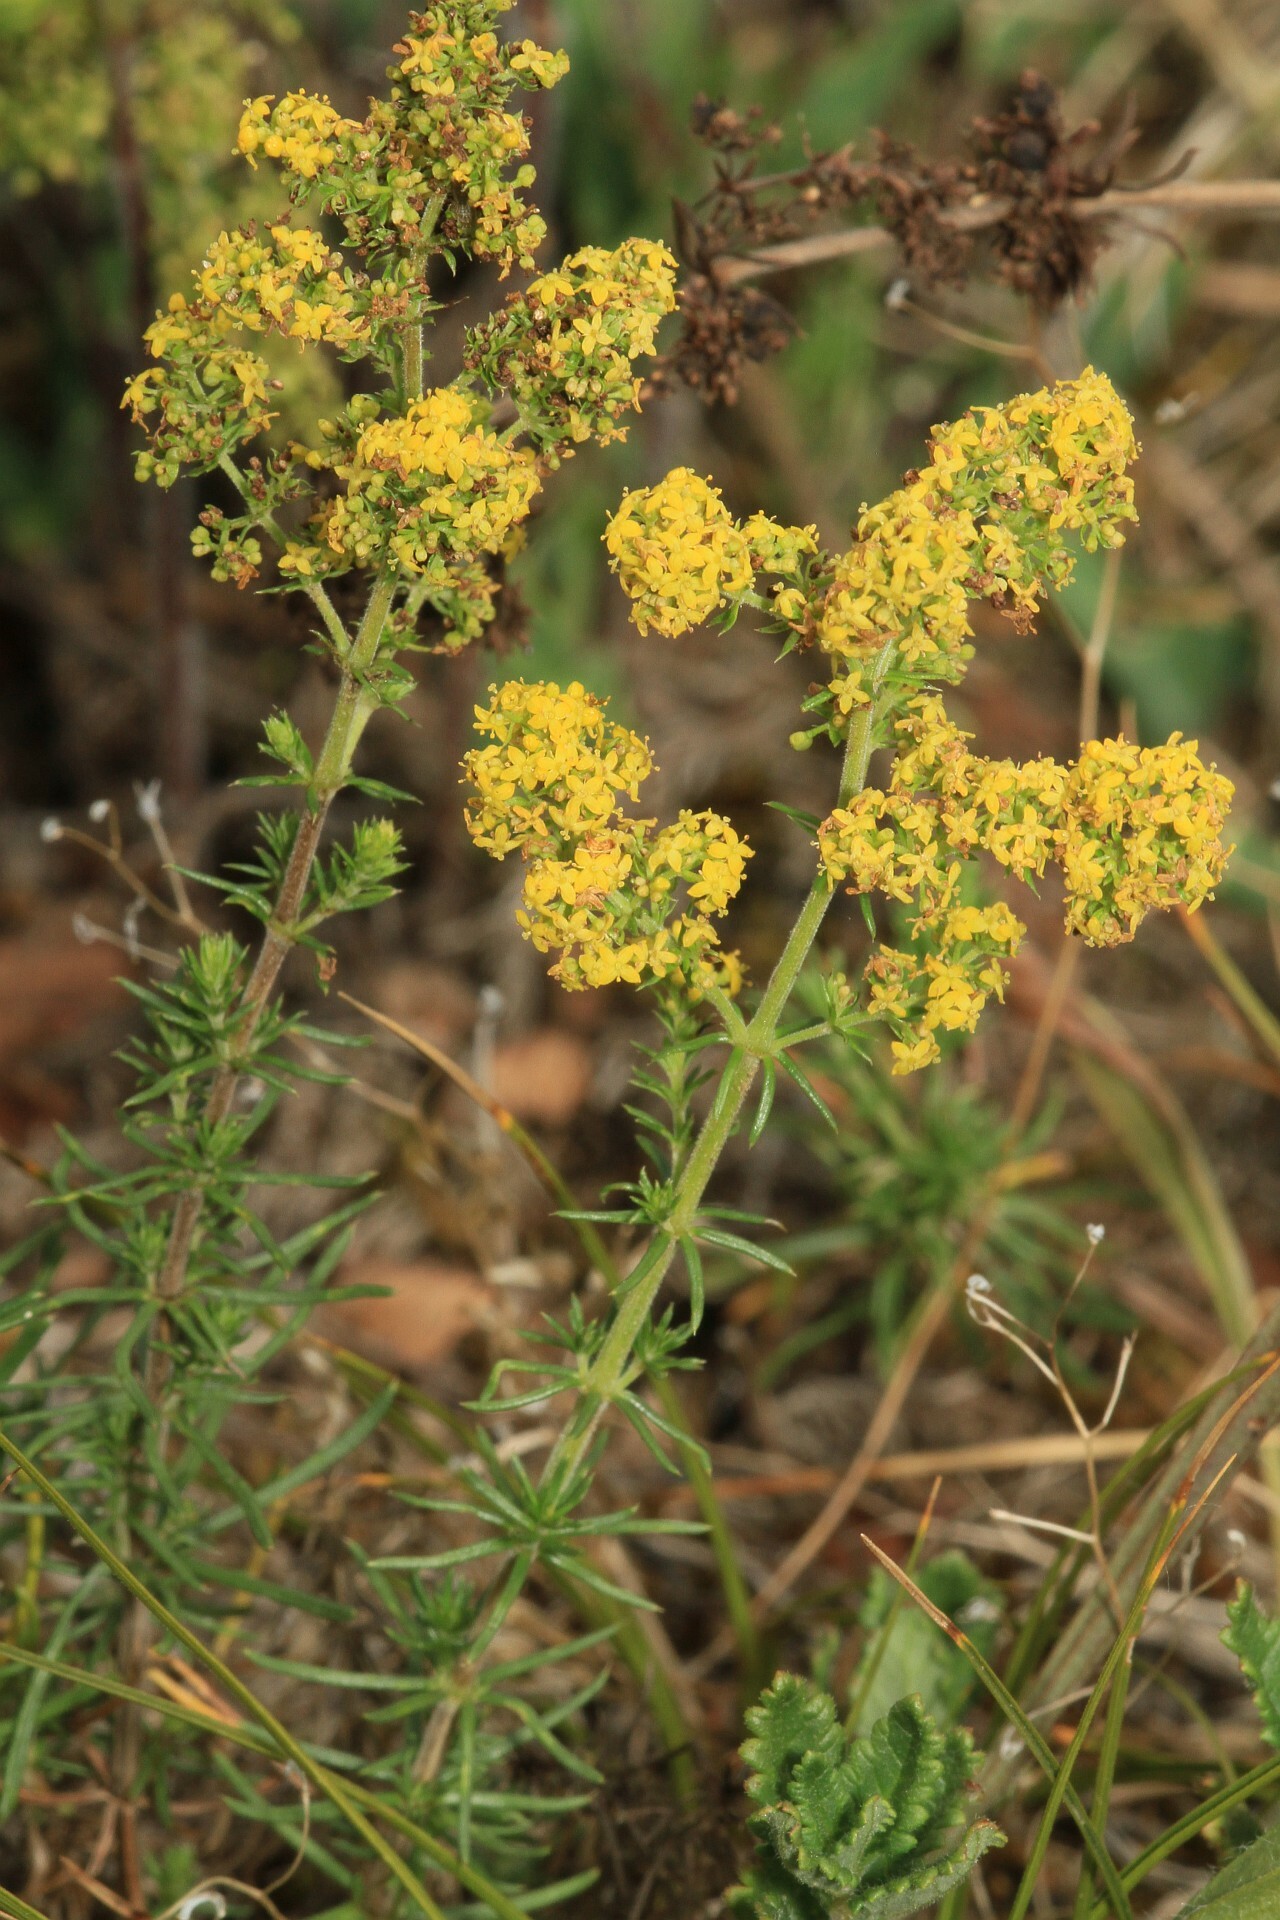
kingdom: Plantae
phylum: Tracheophyta
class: Magnoliopsida
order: Gentianales
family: Rubiaceae
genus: Galium
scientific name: Galium verum
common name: Lady's bedstraw
